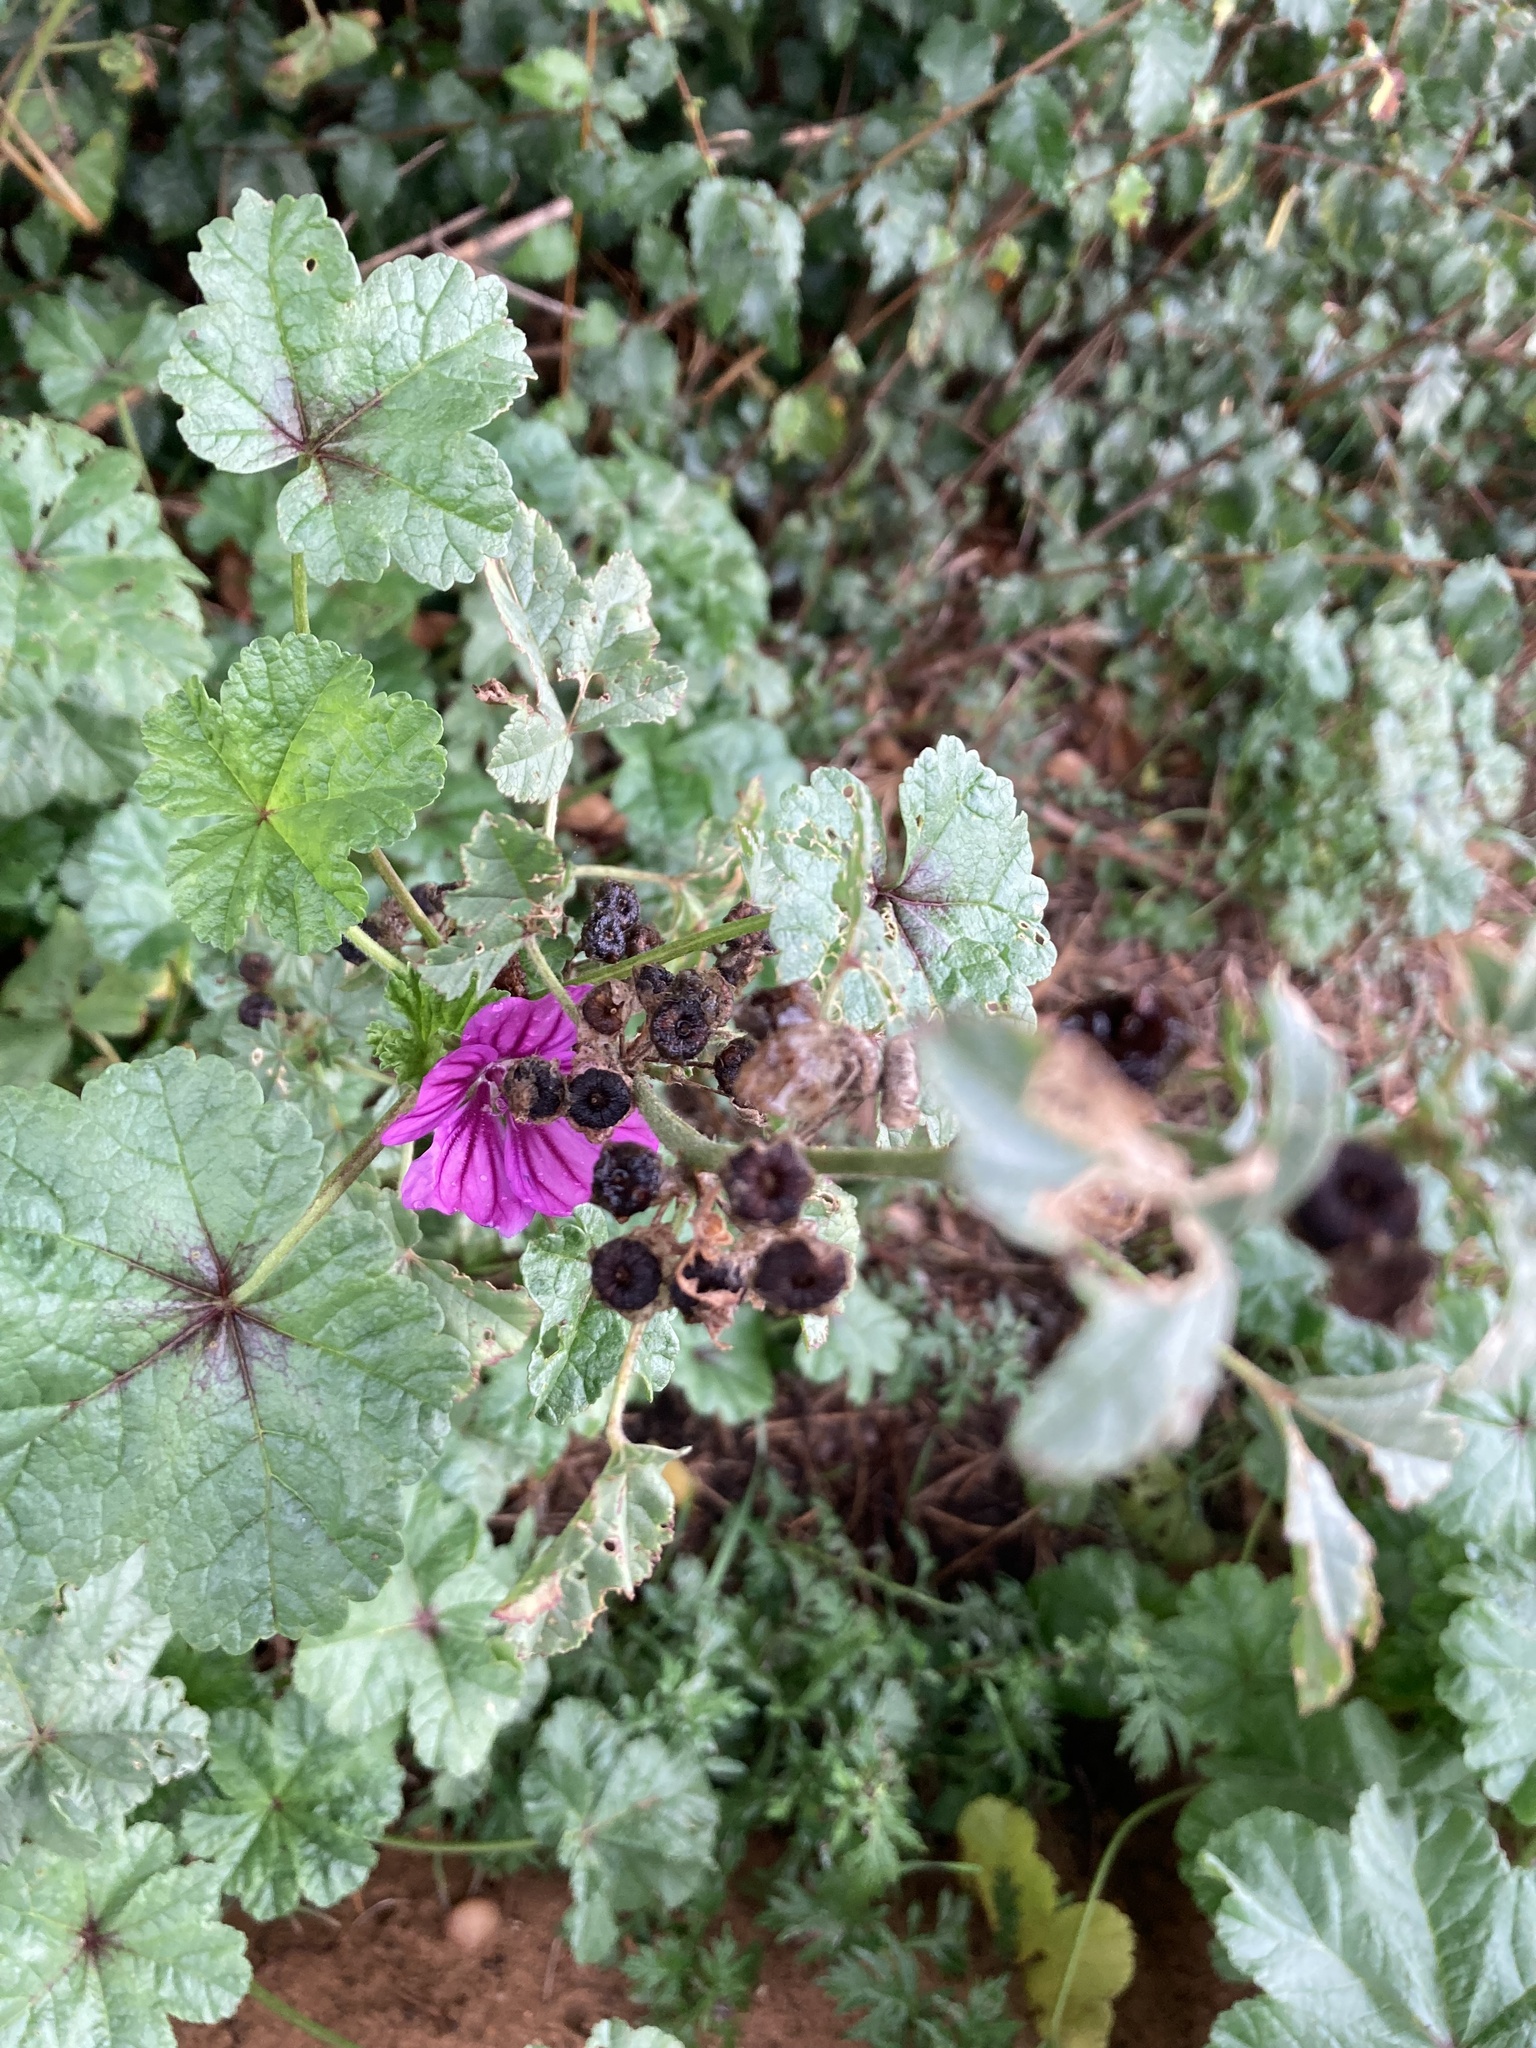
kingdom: Plantae
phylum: Tracheophyta
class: Magnoliopsida
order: Malvales
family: Malvaceae
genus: Malva
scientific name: Malva sylvestris
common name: Common mallow
